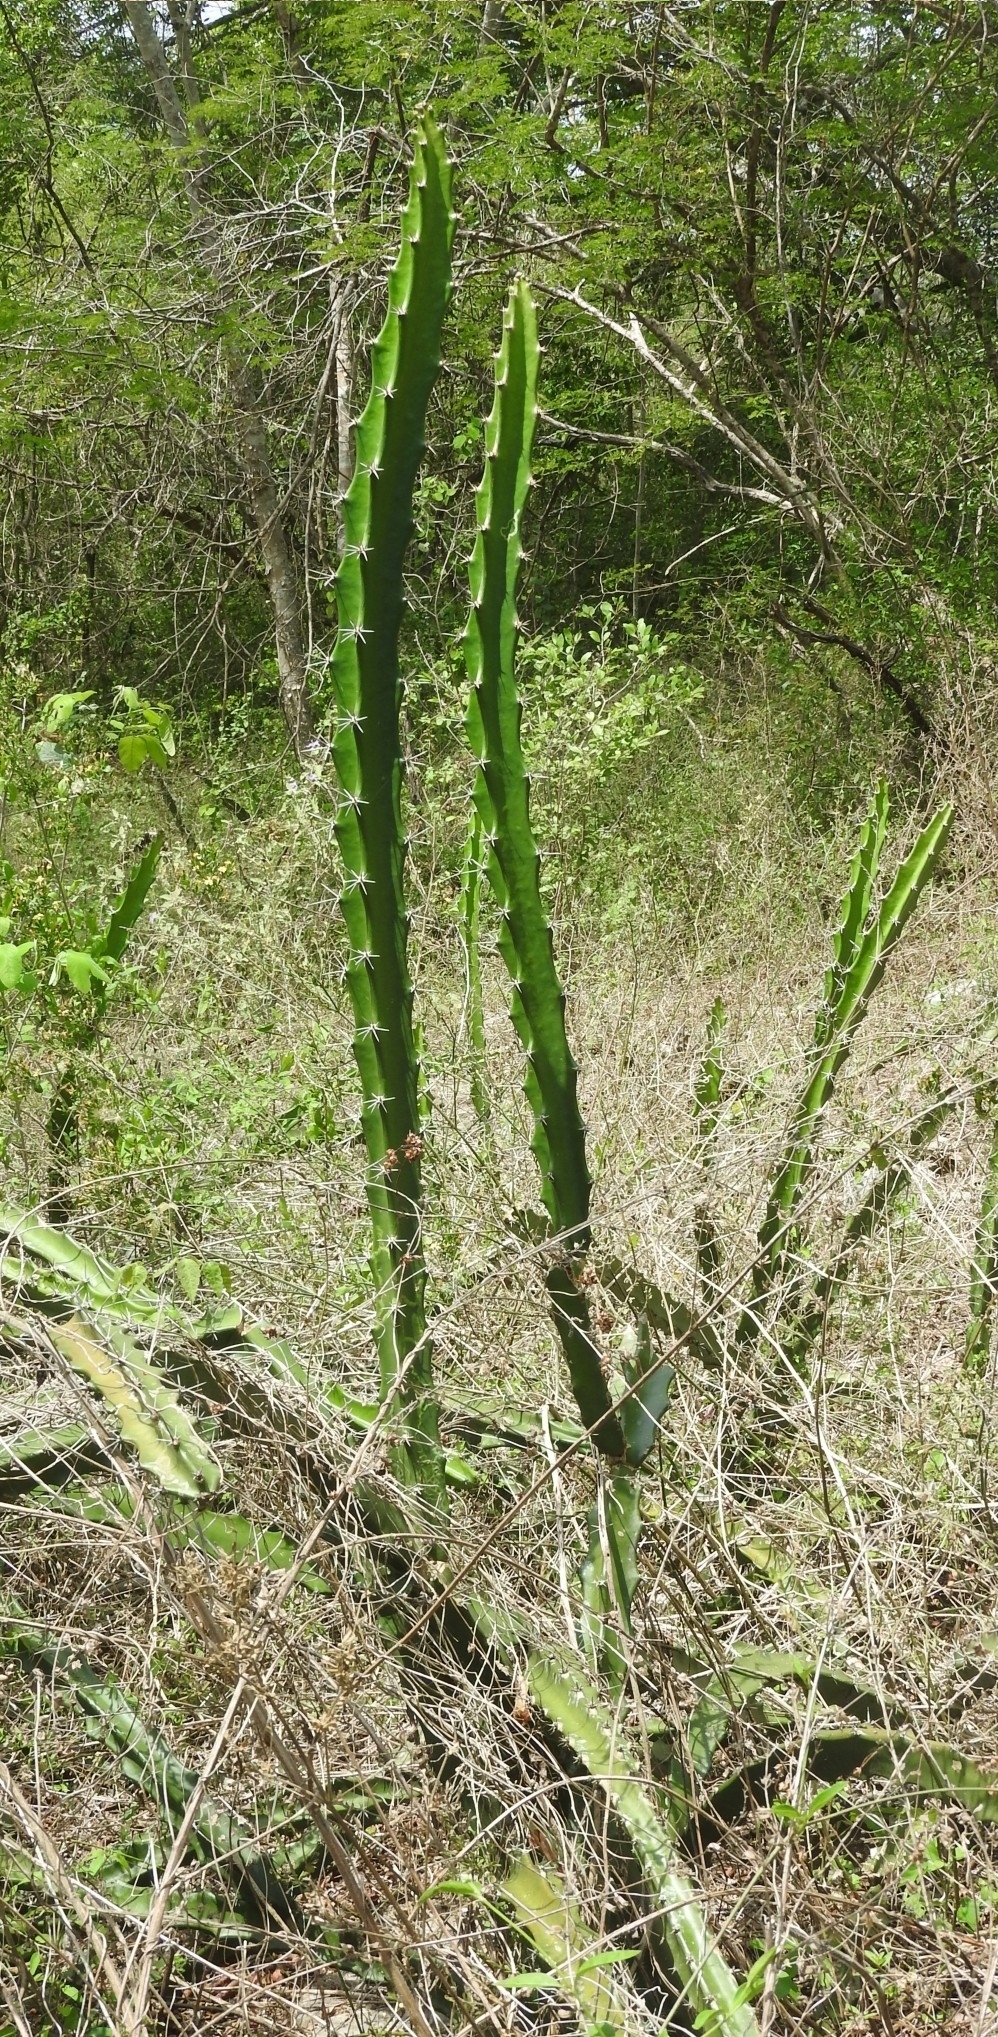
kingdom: Plantae
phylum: Tracheophyta
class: Magnoliopsida
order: Caryophyllales
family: Cactaceae
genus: Acanthocereus
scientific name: Acanthocereus tetragonus
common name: Triangle cactus
